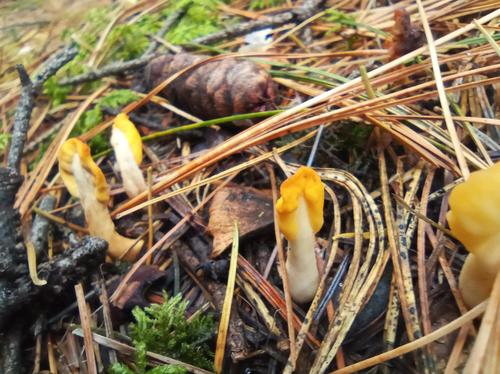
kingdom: Fungi
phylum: Ascomycota
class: Leotiomycetes
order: Rhytismatales
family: Cudoniaceae
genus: Spathularia
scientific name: Spathularia flavida
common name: Yellow fan
